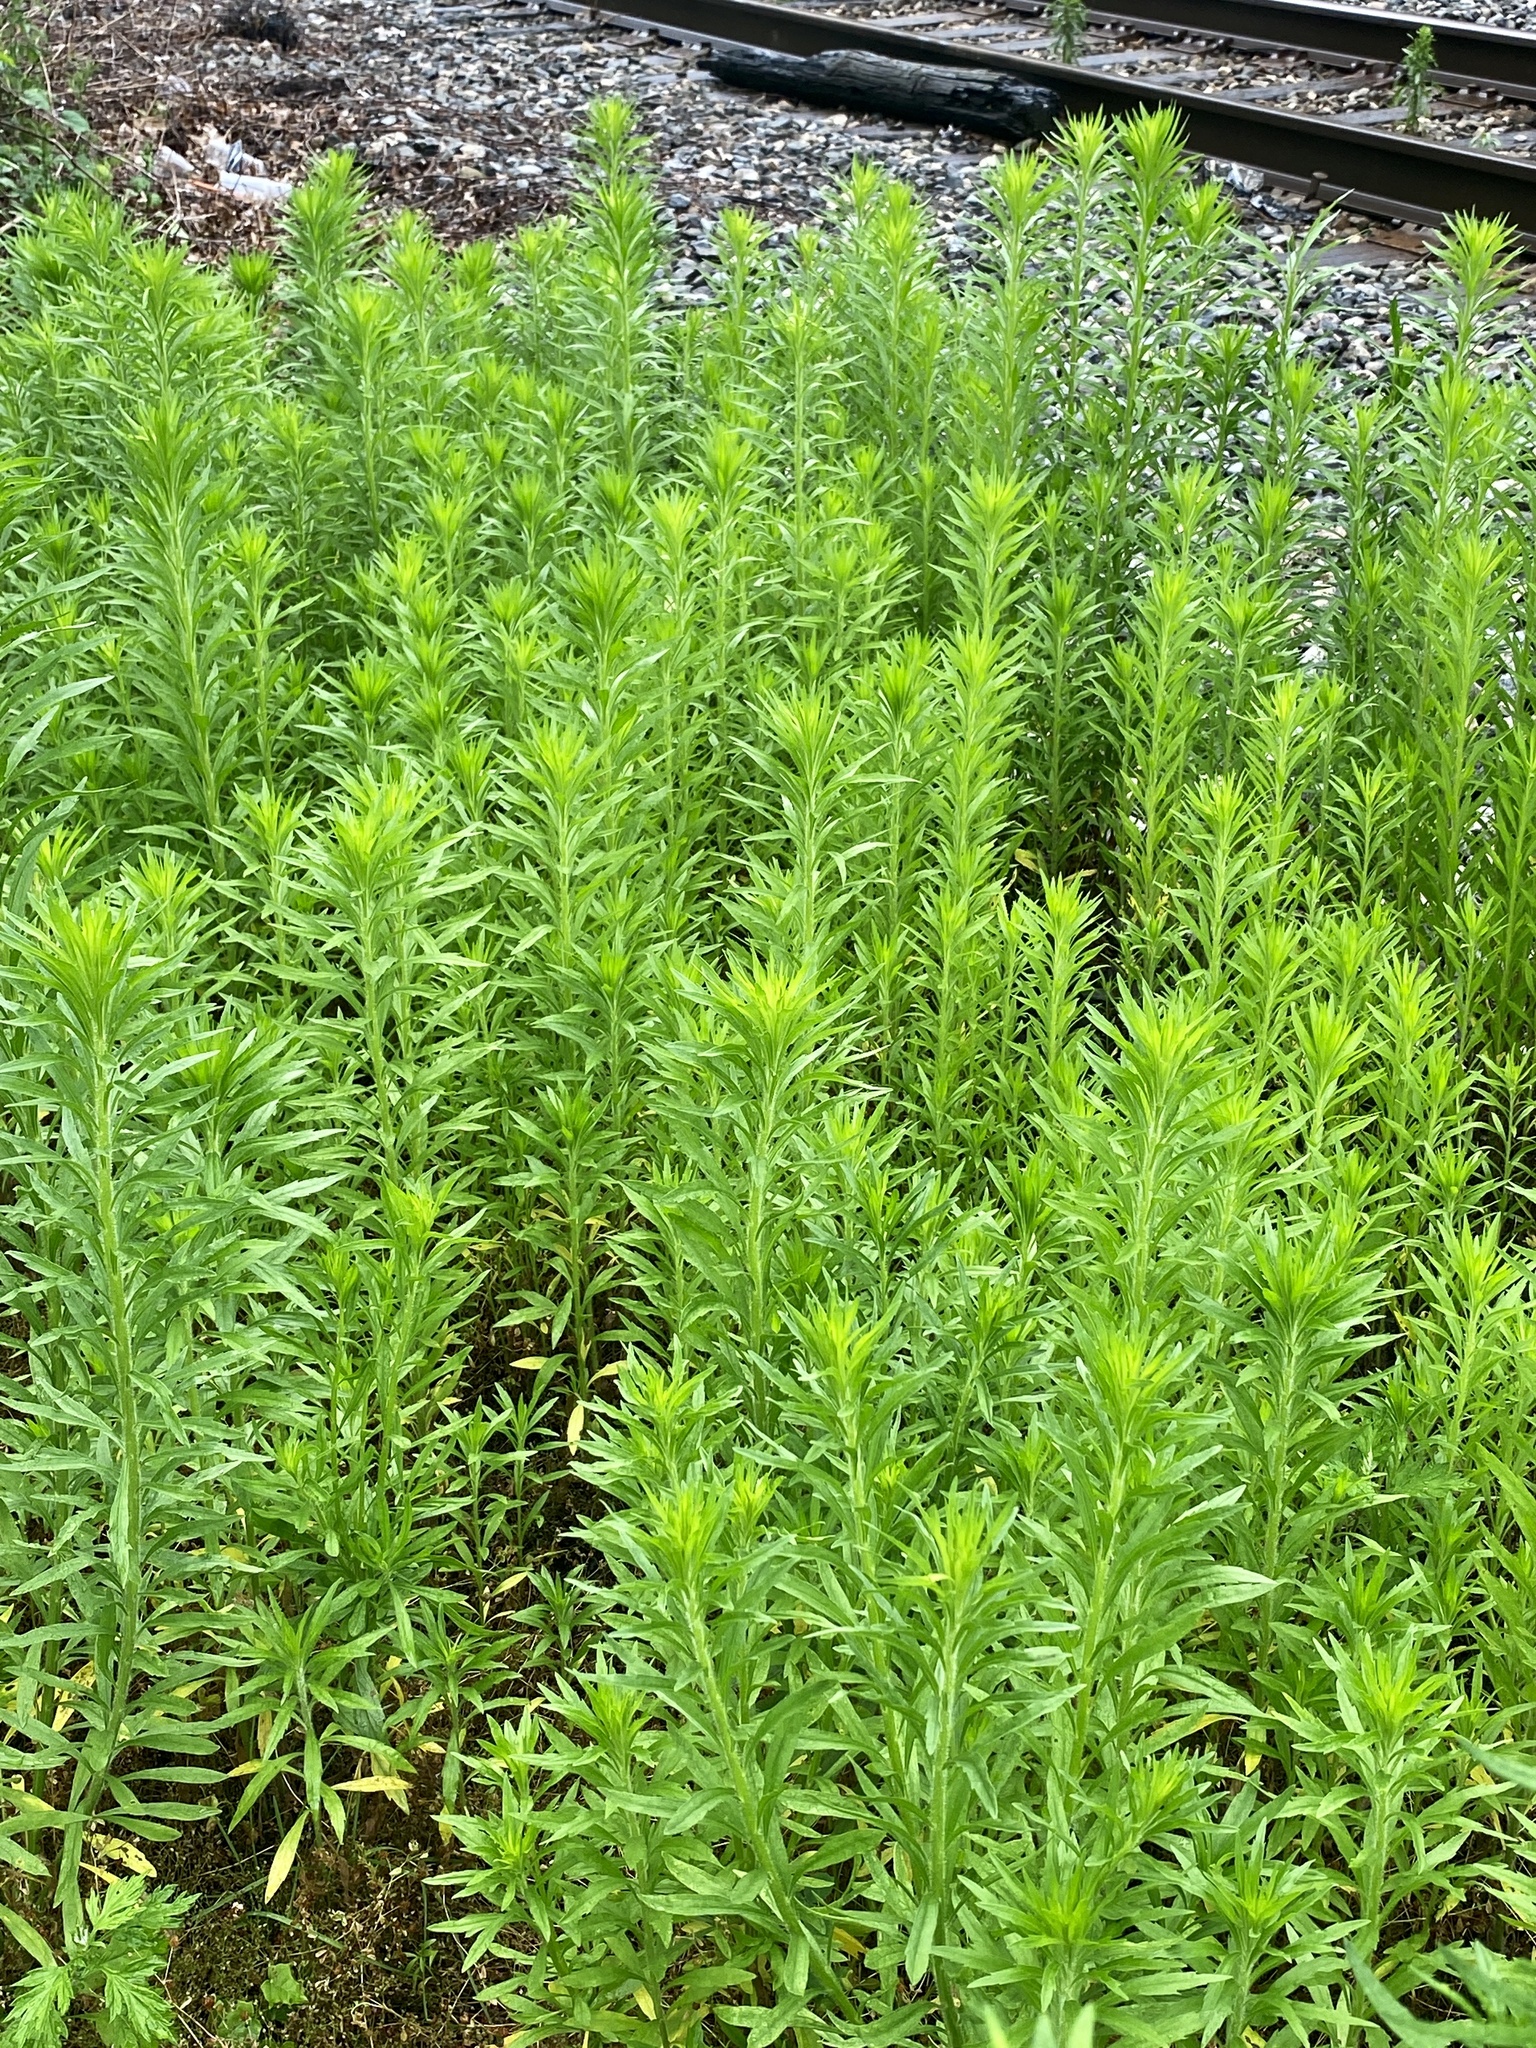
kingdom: Plantae
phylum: Tracheophyta
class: Magnoliopsida
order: Asterales
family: Asteraceae
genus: Erigeron
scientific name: Erigeron canadensis
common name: Canadian fleabane
